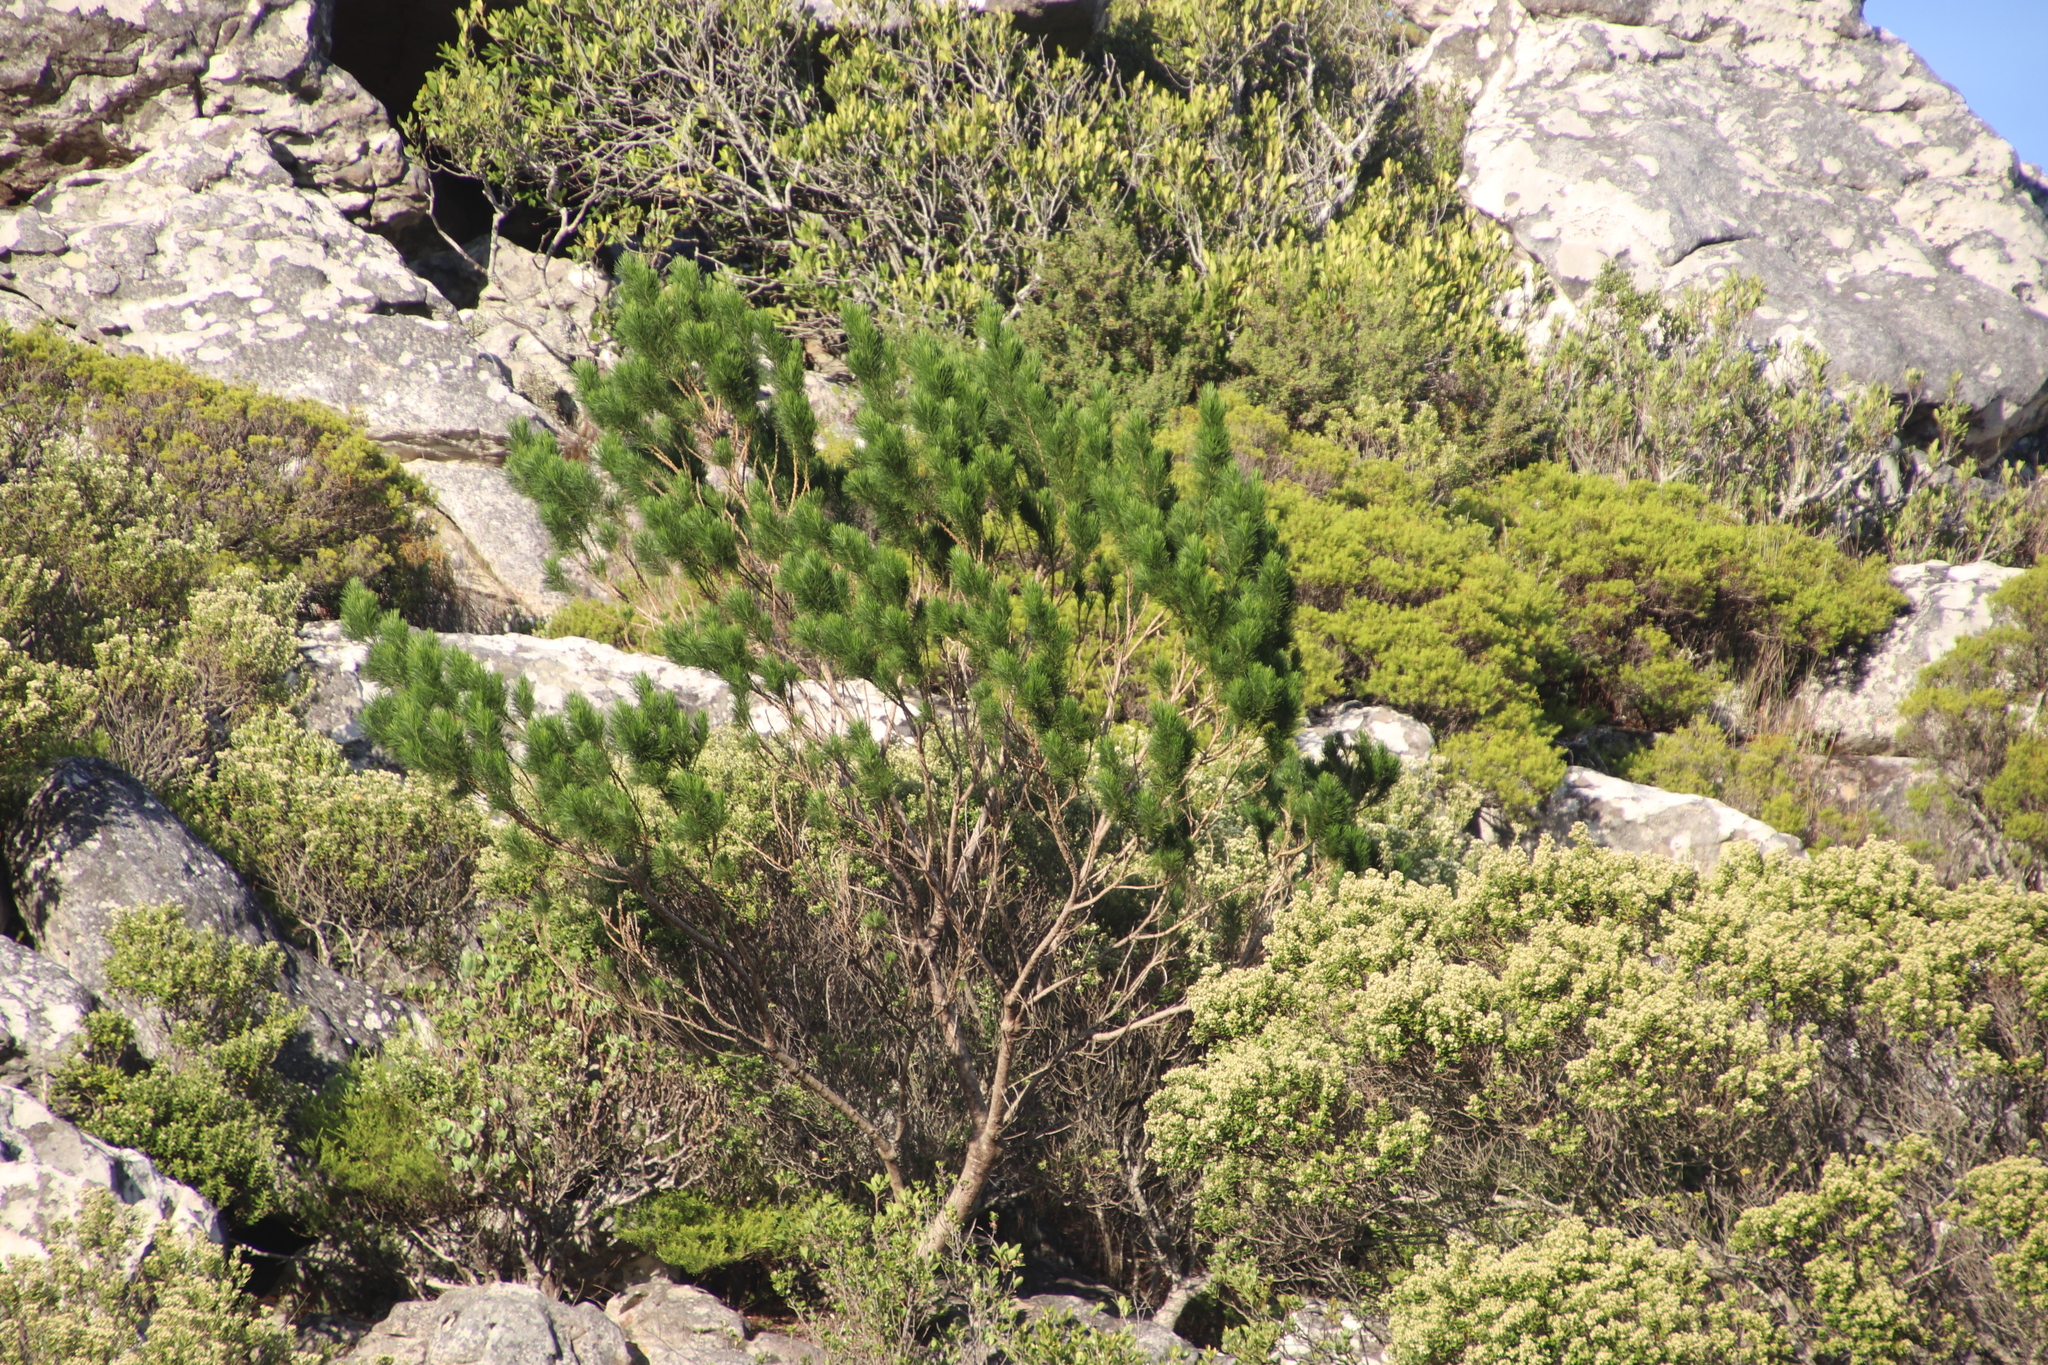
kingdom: Plantae
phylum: Tracheophyta
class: Magnoliopsida
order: Fabales
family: Fabaceae
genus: Psoralea
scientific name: Psoralea pinnata
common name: African scurfpea
